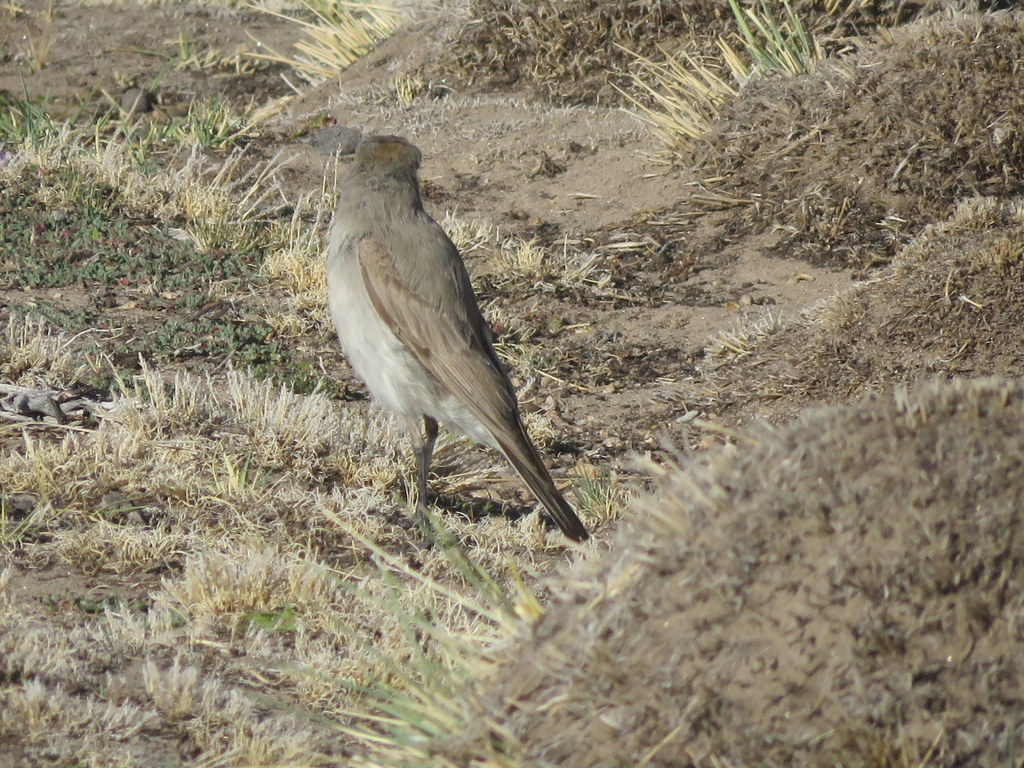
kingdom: Animalia
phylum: Chordata
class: Aves
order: Passeriformes
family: Tyrannidae
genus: Muscisaxicola
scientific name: Muscisaxicola juninensis
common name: Puna ground tyrant
